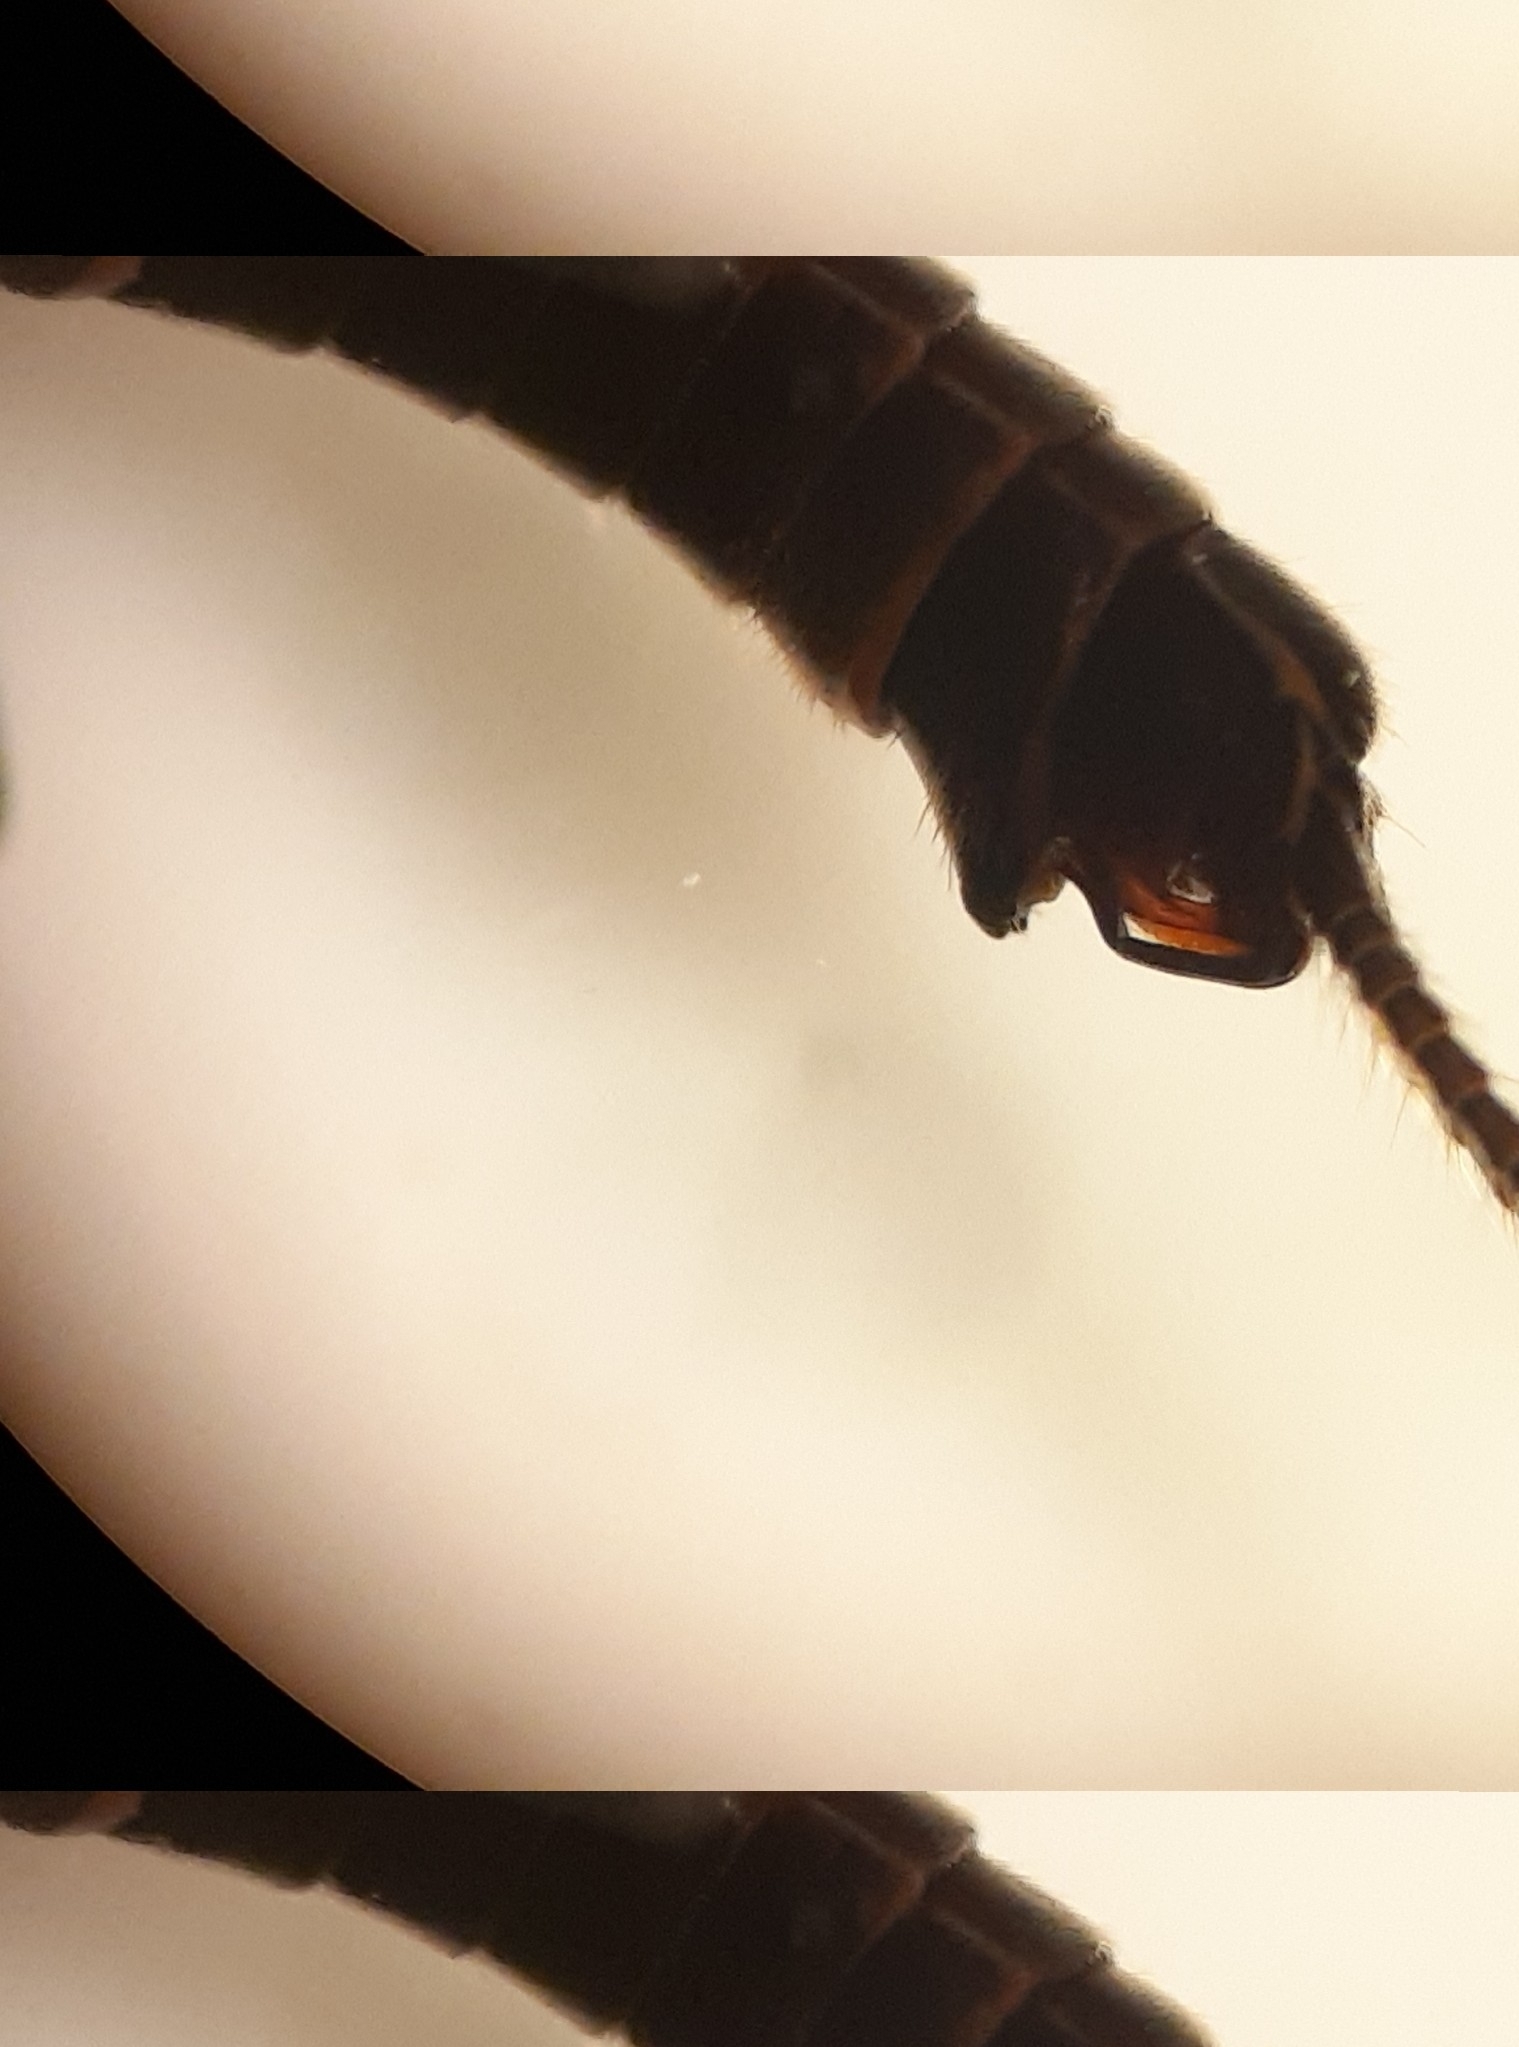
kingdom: Animalia
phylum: Arthropoda
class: Insecta
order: Plecoptera
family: Capniidae
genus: Allocapnia
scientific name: Allocapnia granulata
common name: Common snowfly
